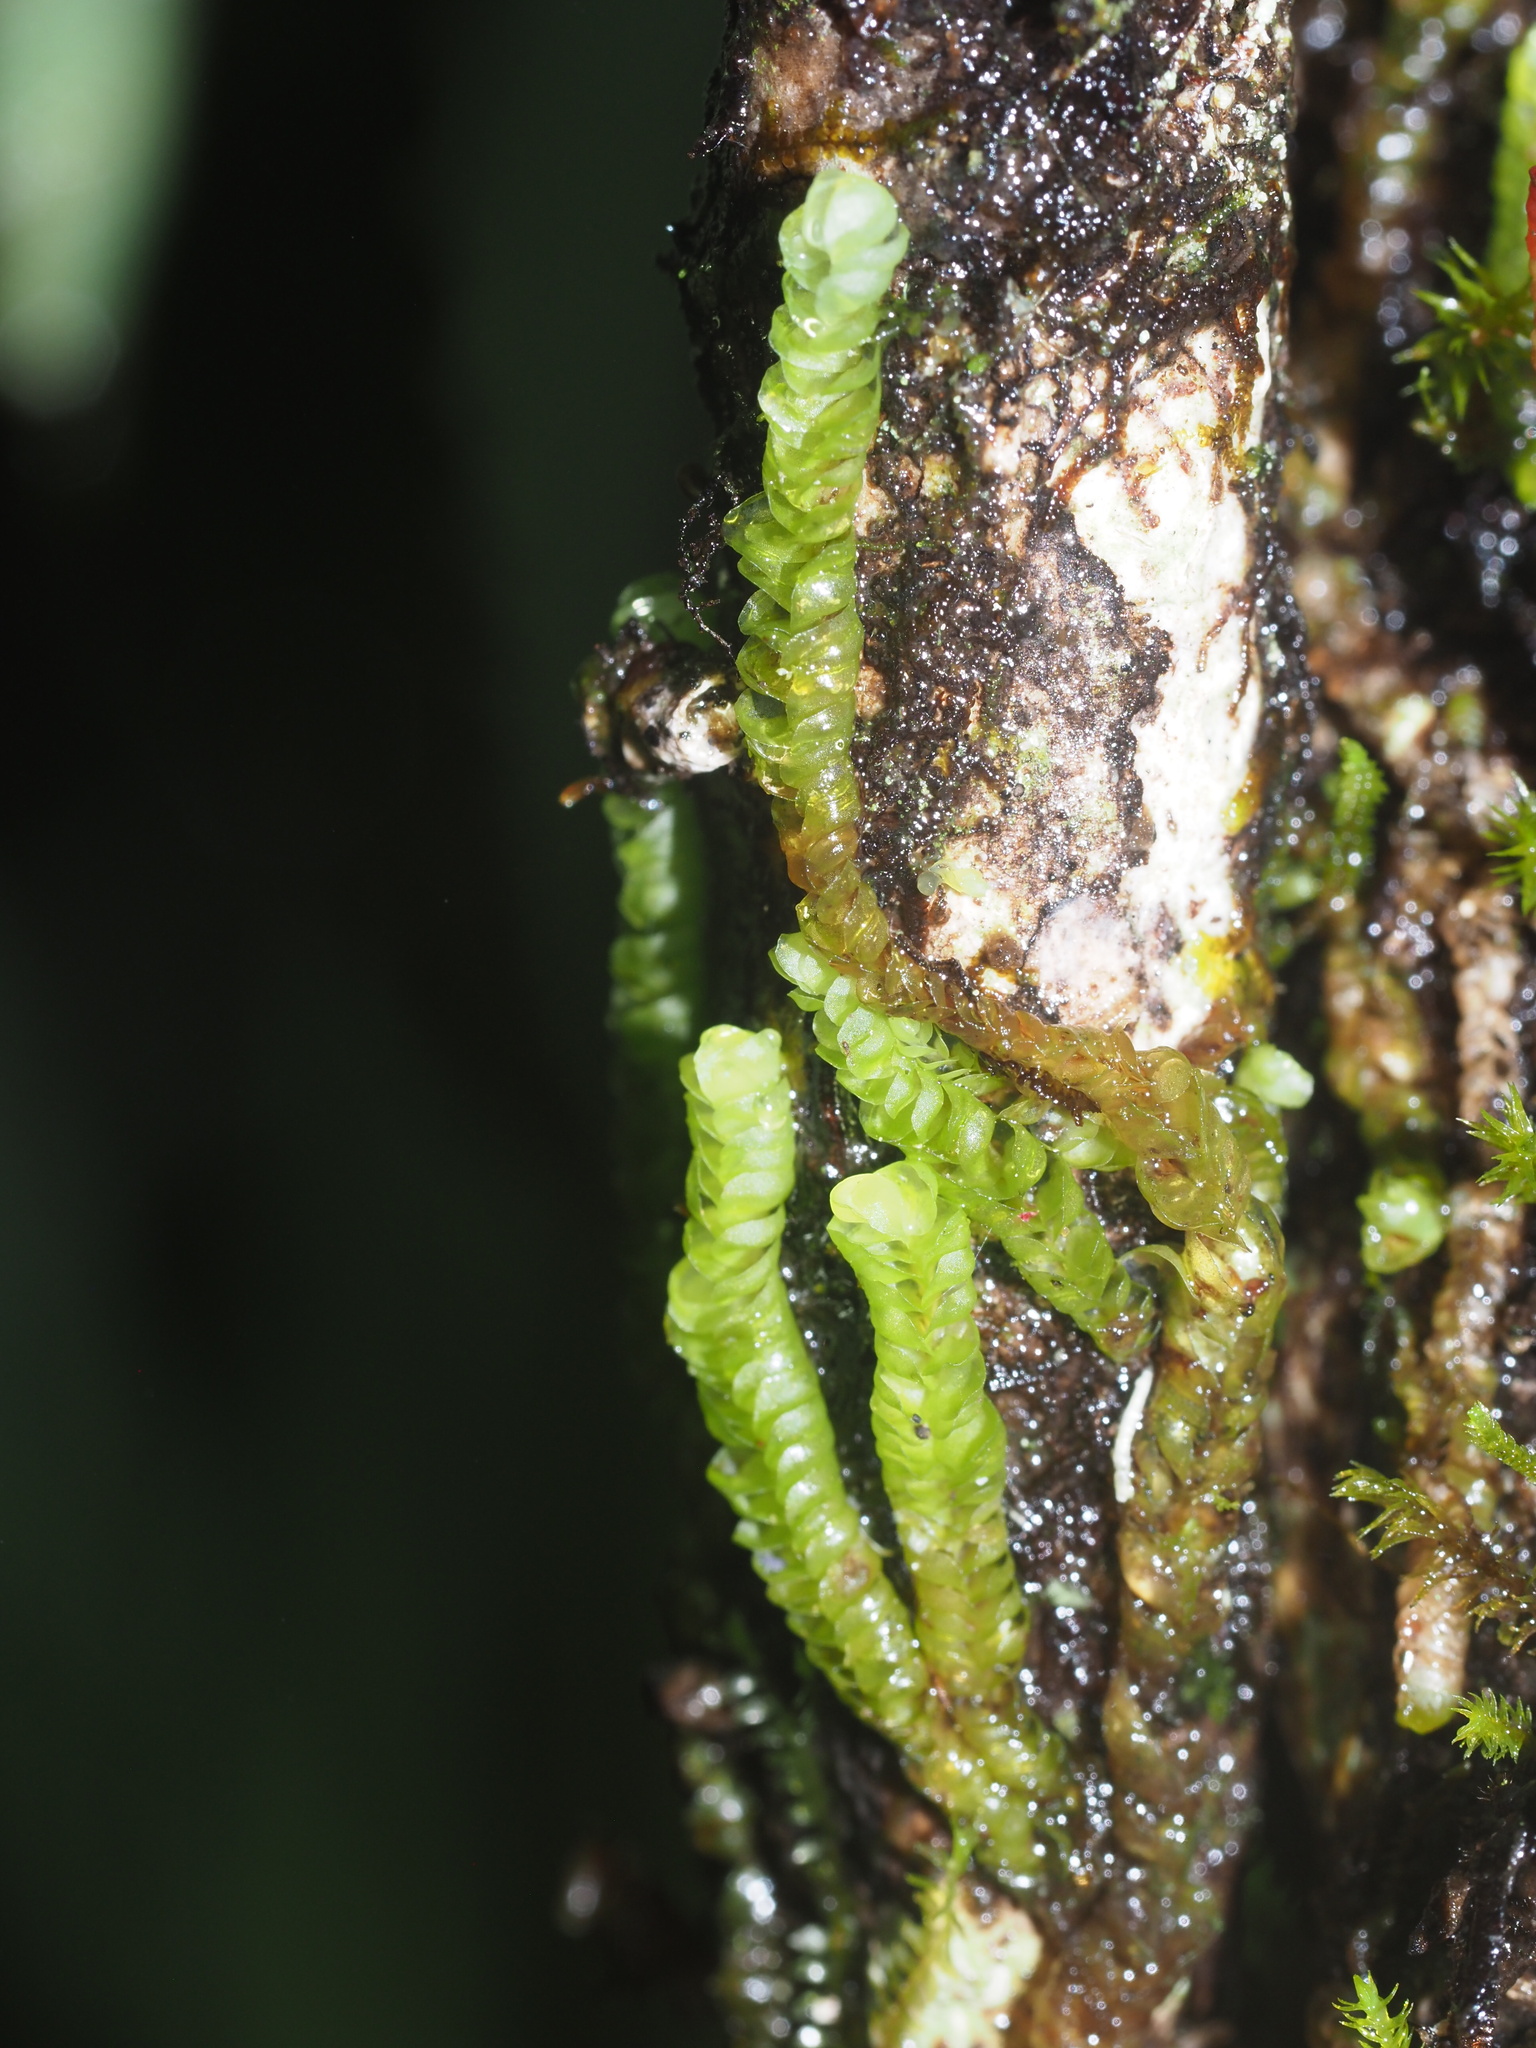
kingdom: Plantae
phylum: Marchantiophyta
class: Jungermanniopsida
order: Jungermanniales
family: Adelanthaceae
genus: Cuspidatula
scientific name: Cuspidatula
